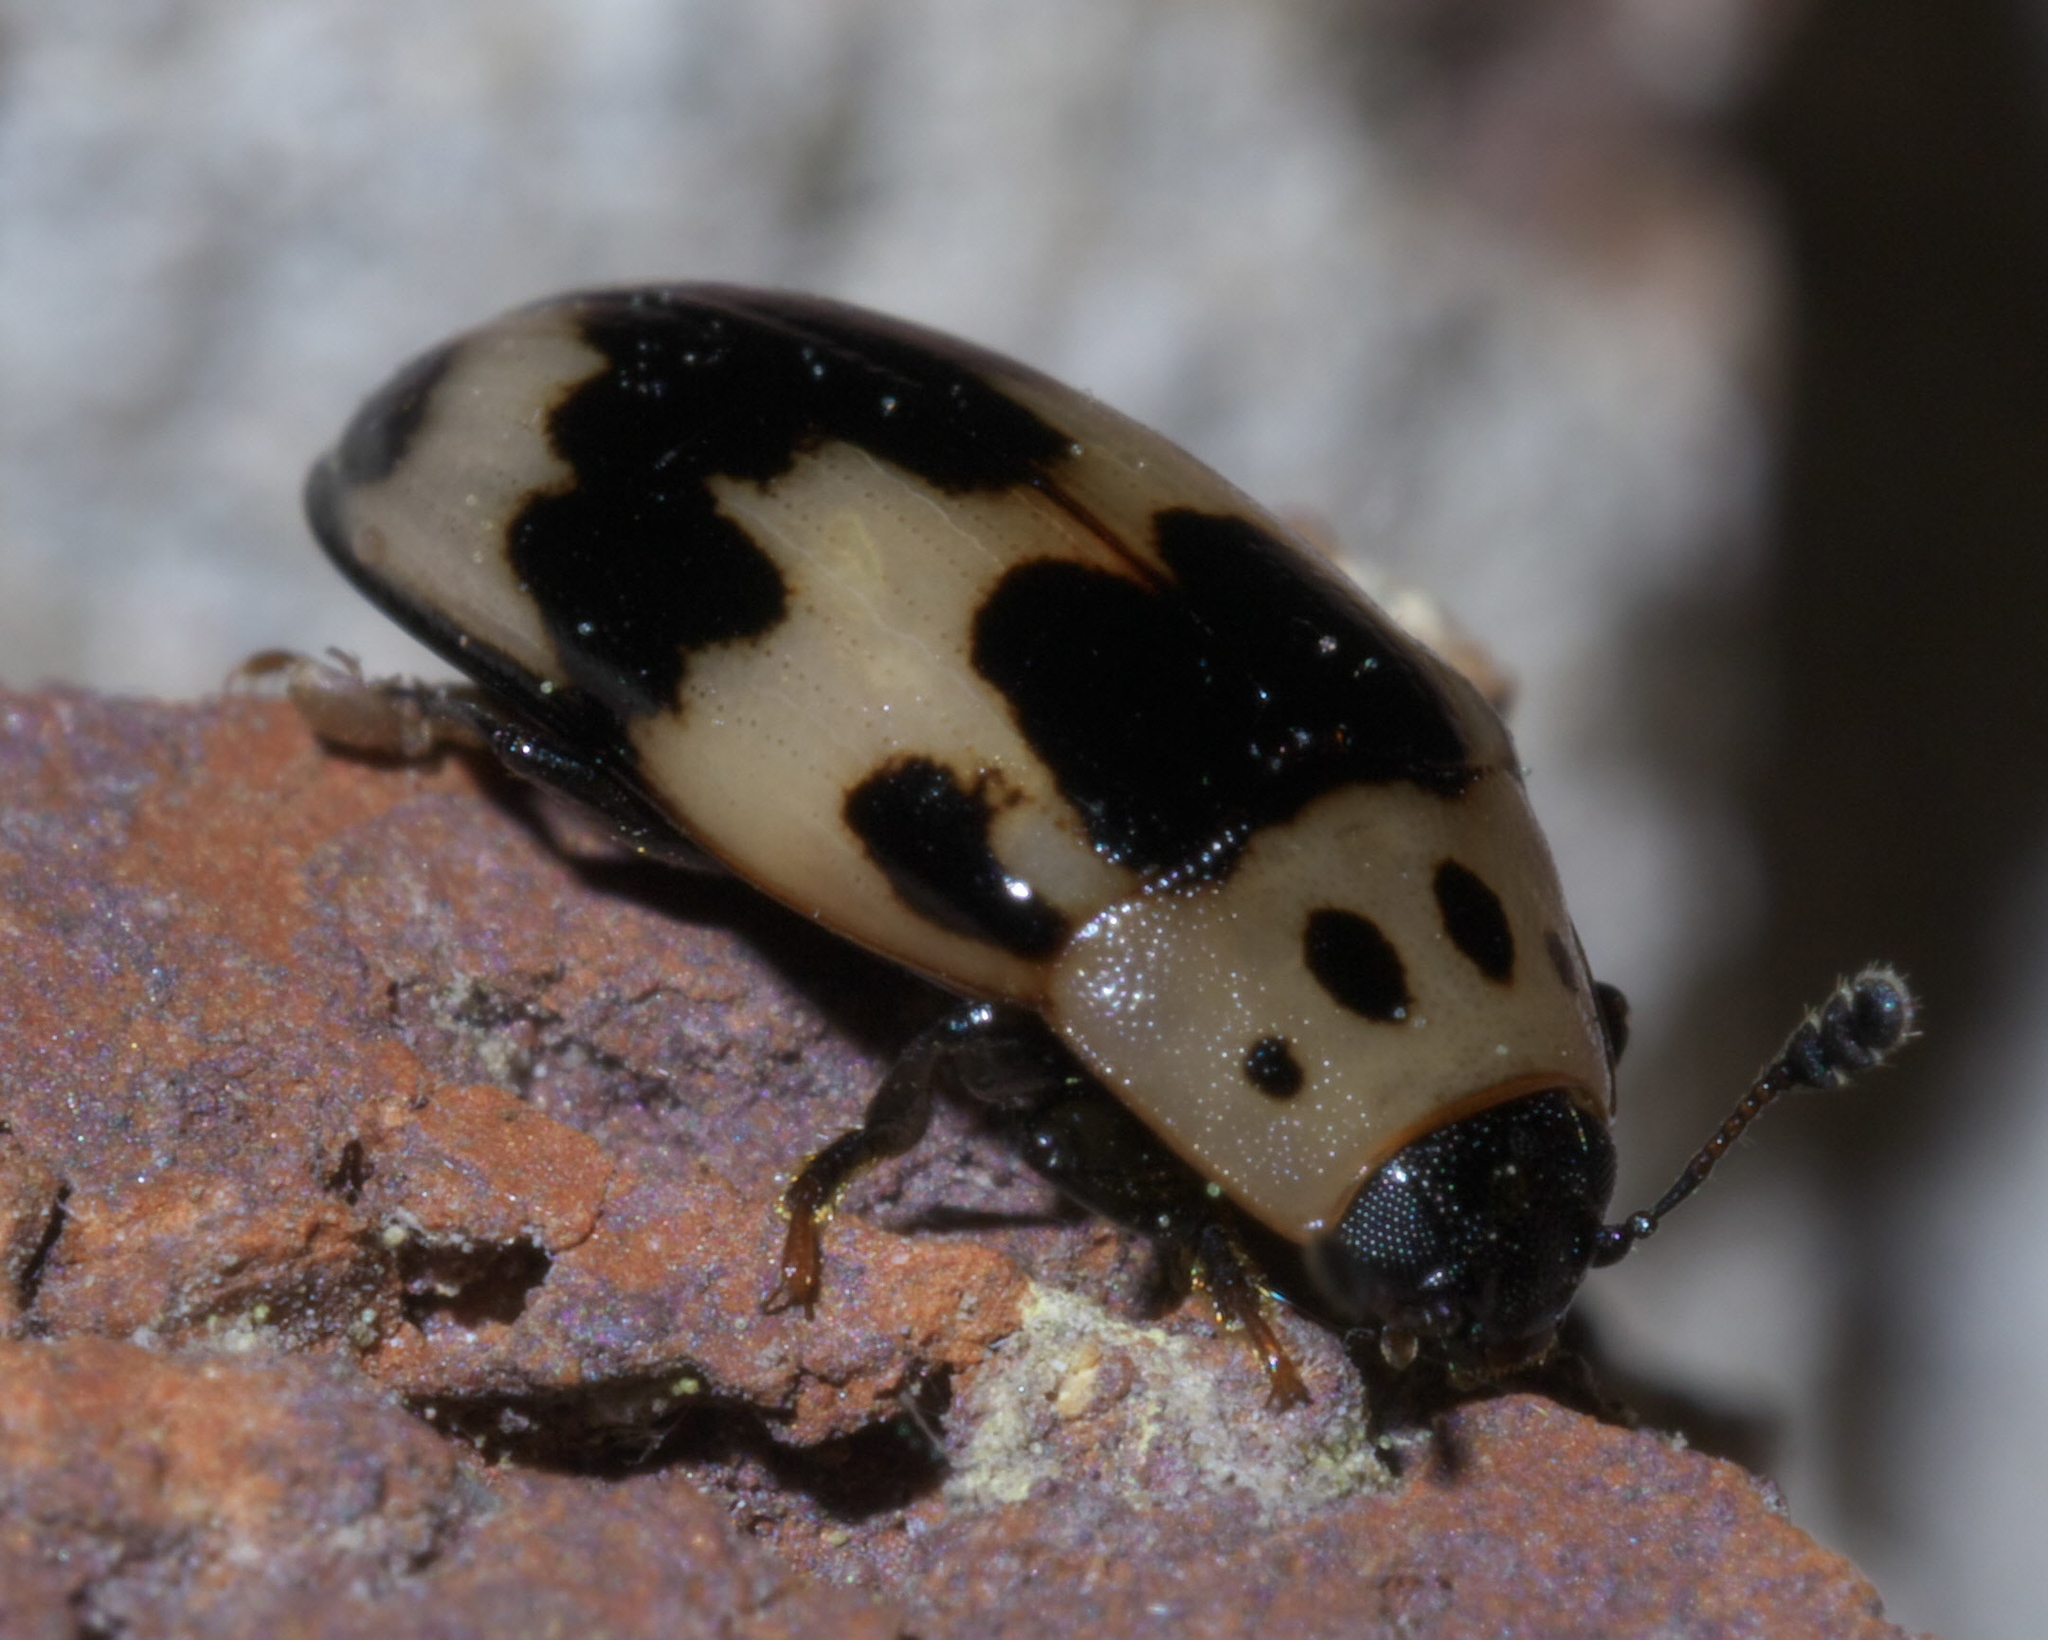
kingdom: Animalia
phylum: Arthropoda
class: Insecta
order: Coleoptera
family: Erotylidae
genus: Ischyrus
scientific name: Ischyrus quadripunctatus
